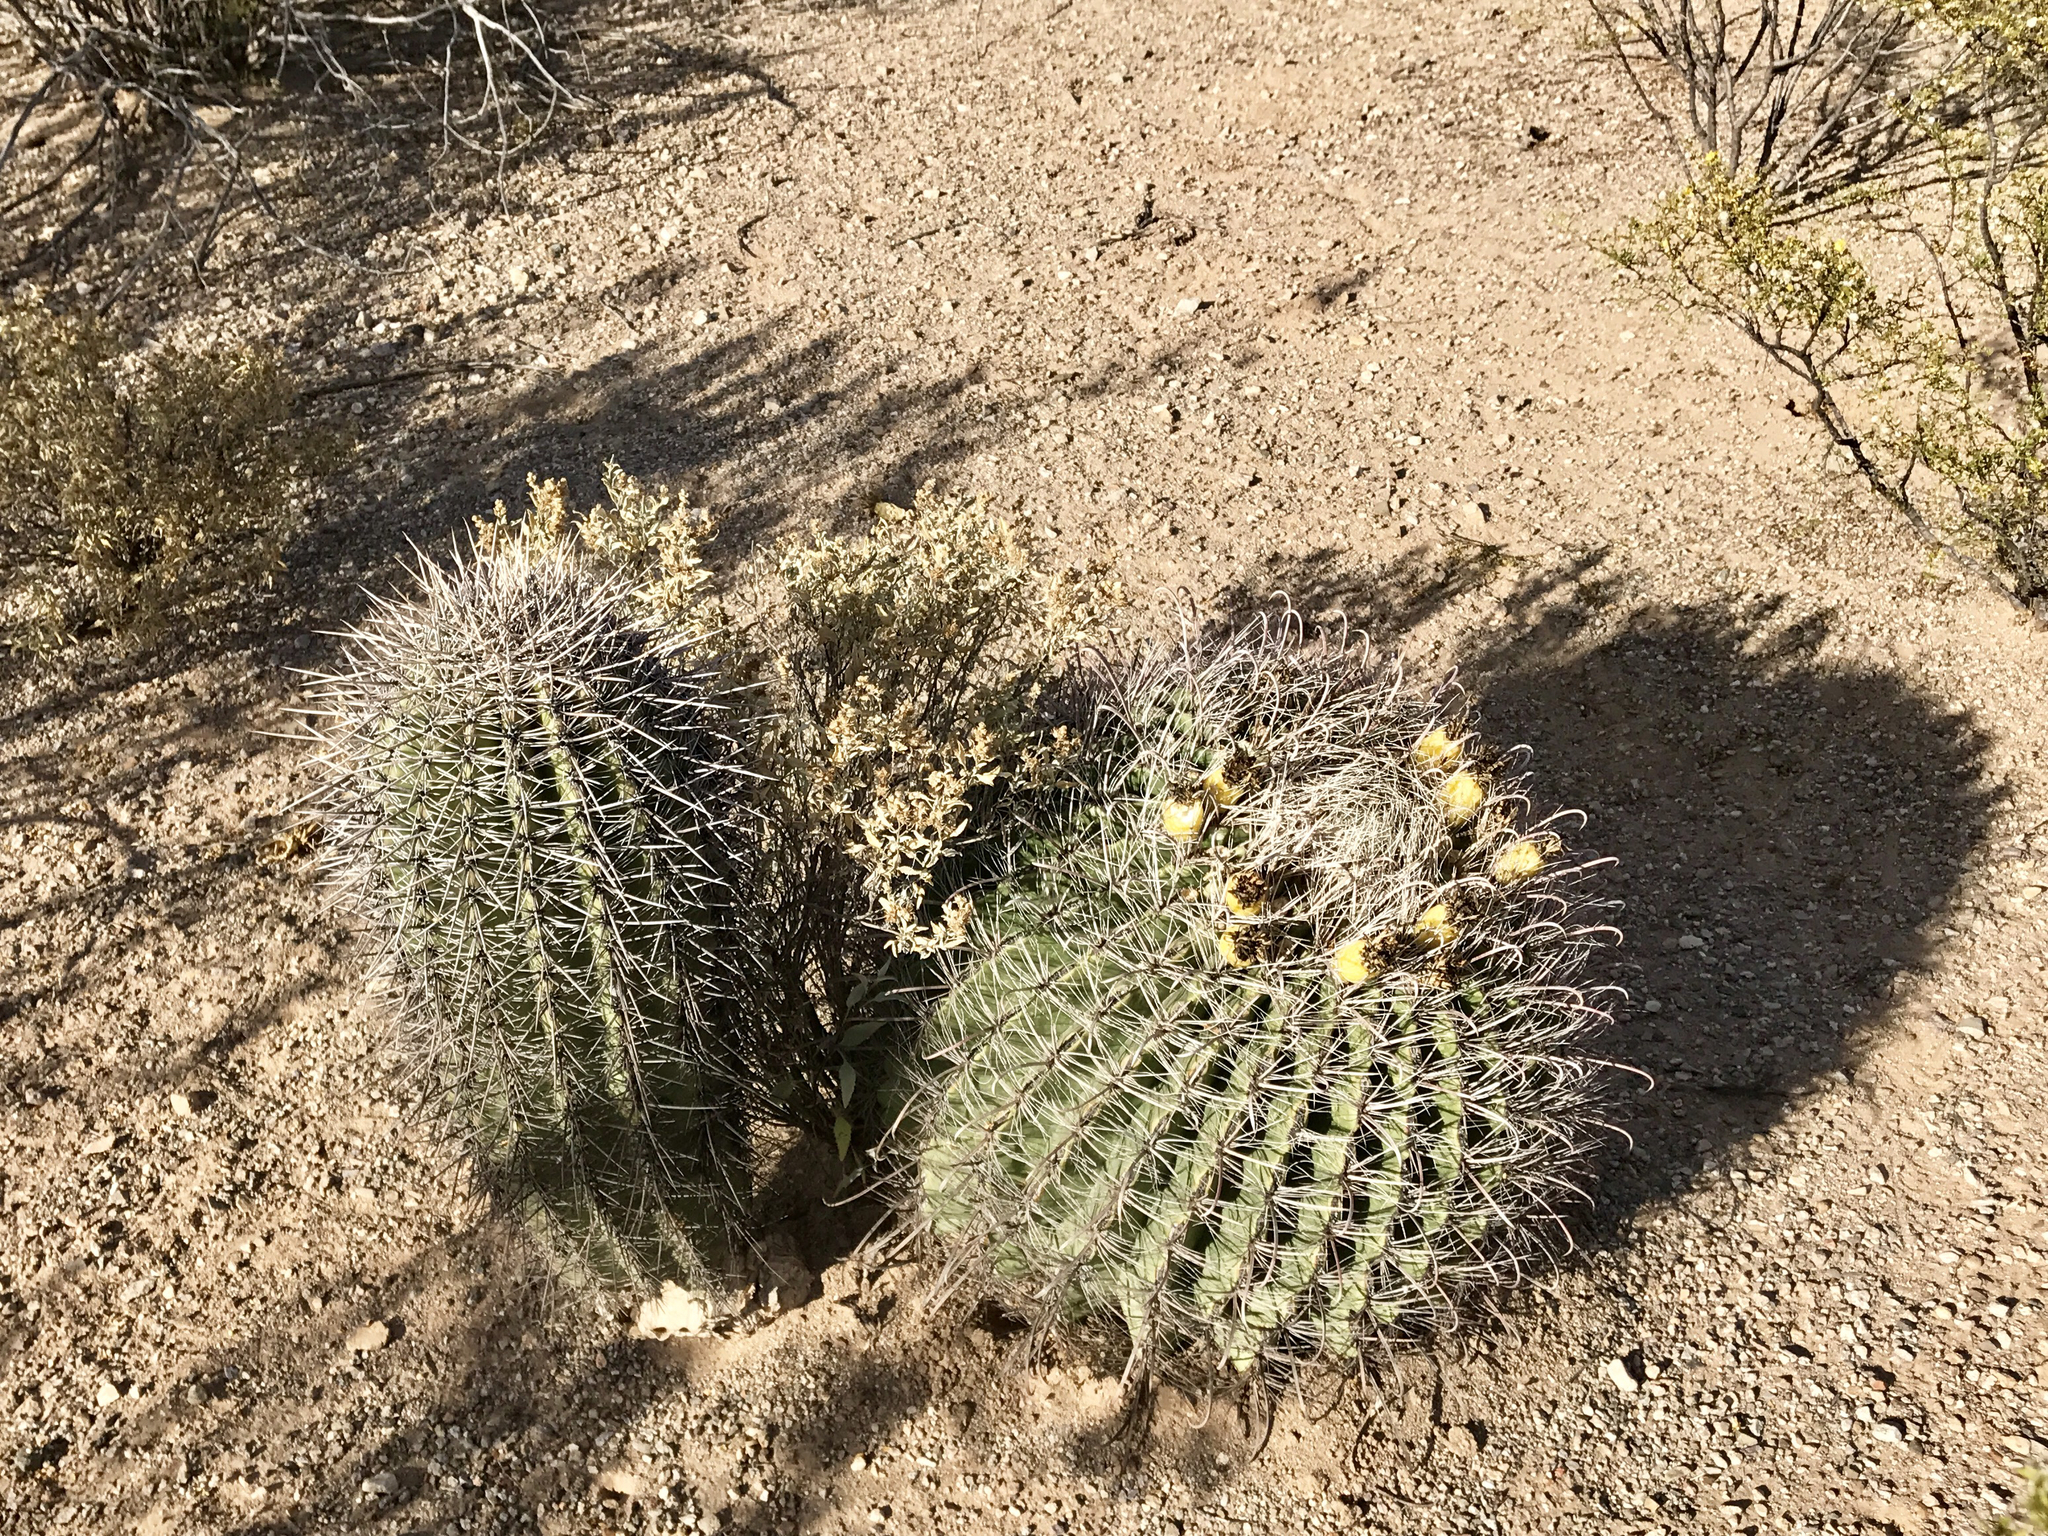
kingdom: Plantae
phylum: Tracheophyta
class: Magnoliopsida
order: Caryophyllales
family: Cactaceae
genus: Carnegiea
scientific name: Carnegiea gigantea
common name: Saguaro
